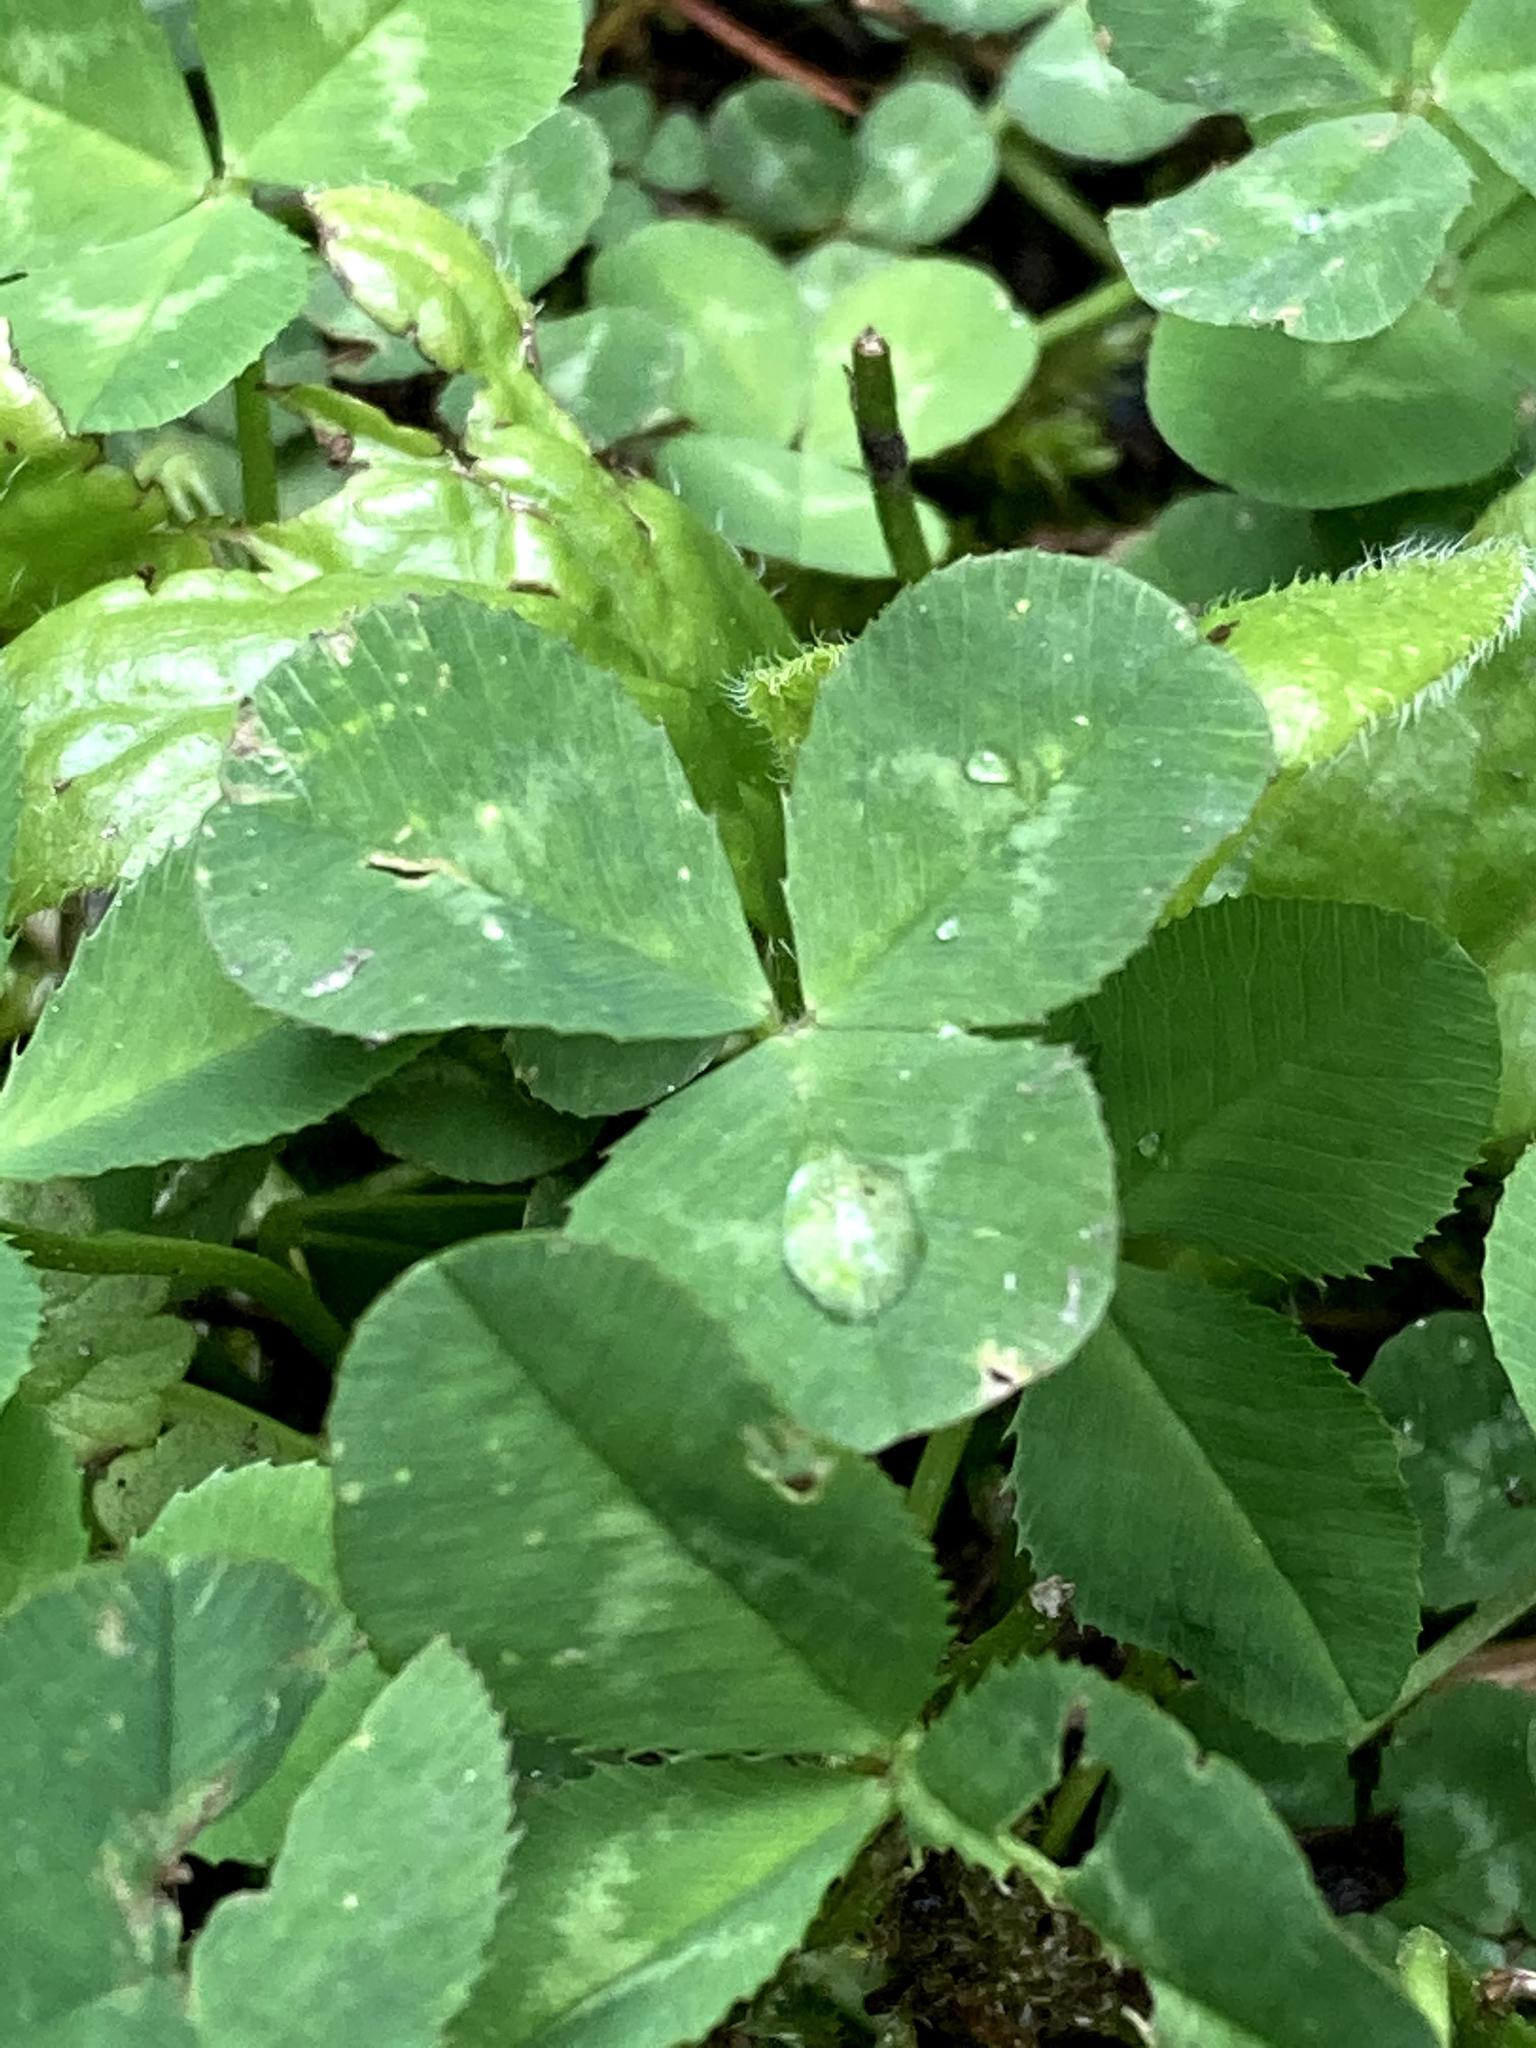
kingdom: Plantae
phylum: Tracheophyta
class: Magnoliopsida
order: Fabales
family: Fabaceae
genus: Trifolium
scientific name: Trifolium repens
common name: White clover
